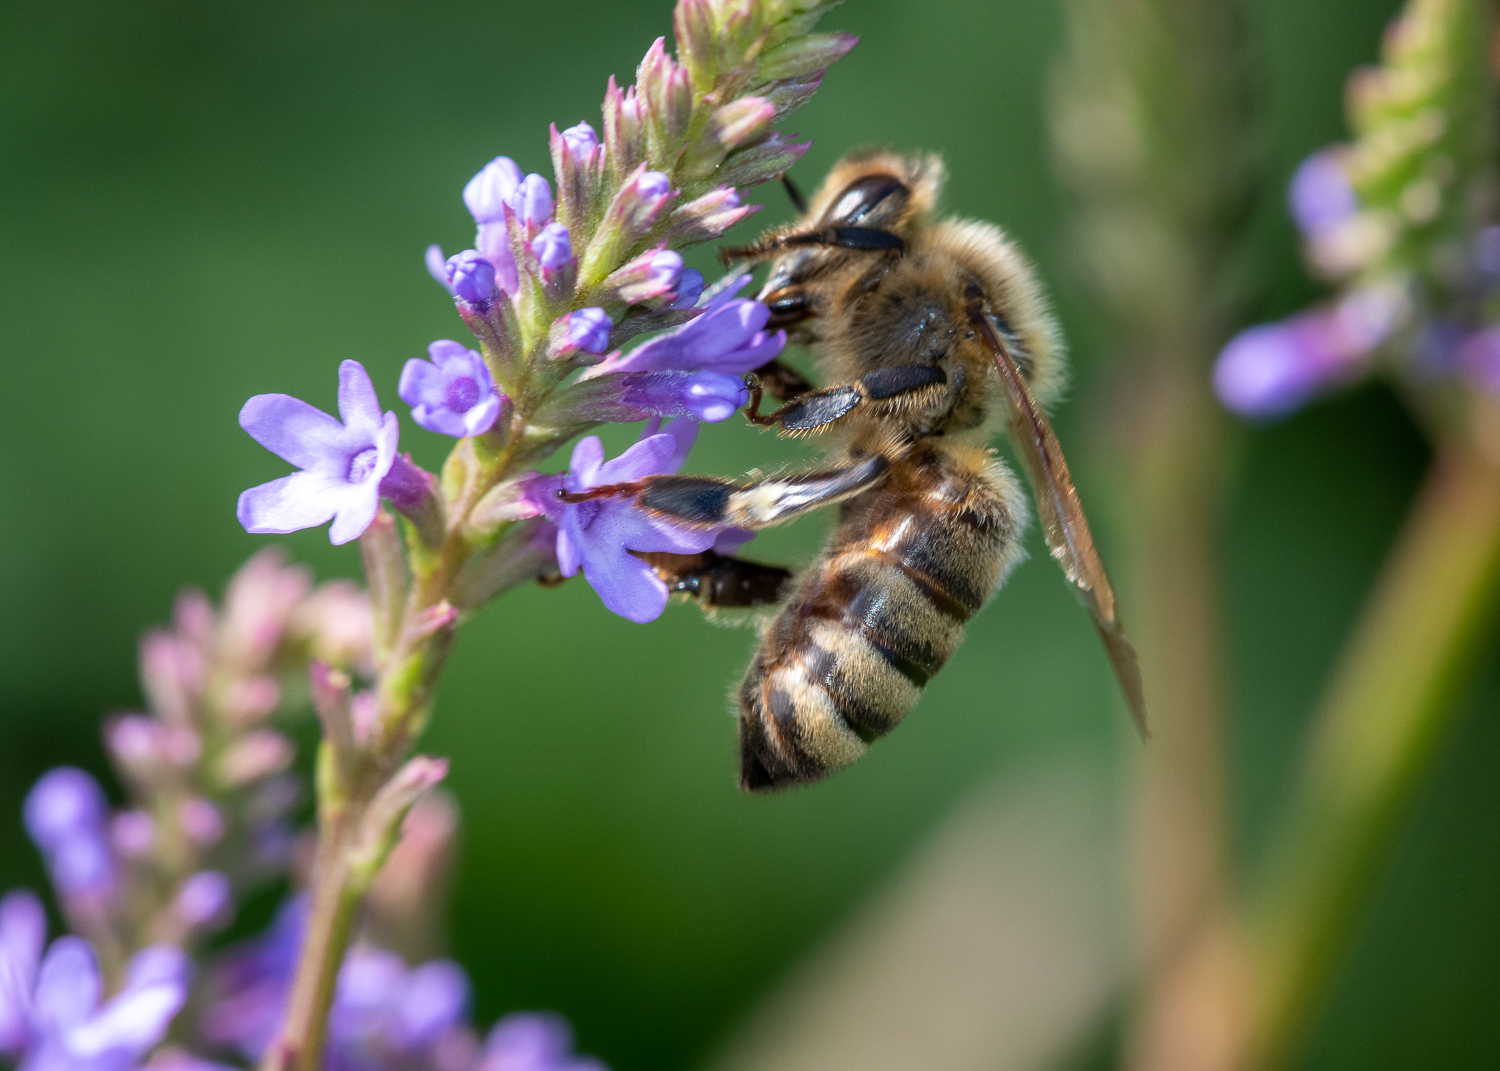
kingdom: Animalia
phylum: Arthropoda
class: Insecta
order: Hymenoptera
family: Apidae
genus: Apis
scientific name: Apis mellifera
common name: Honey bee
